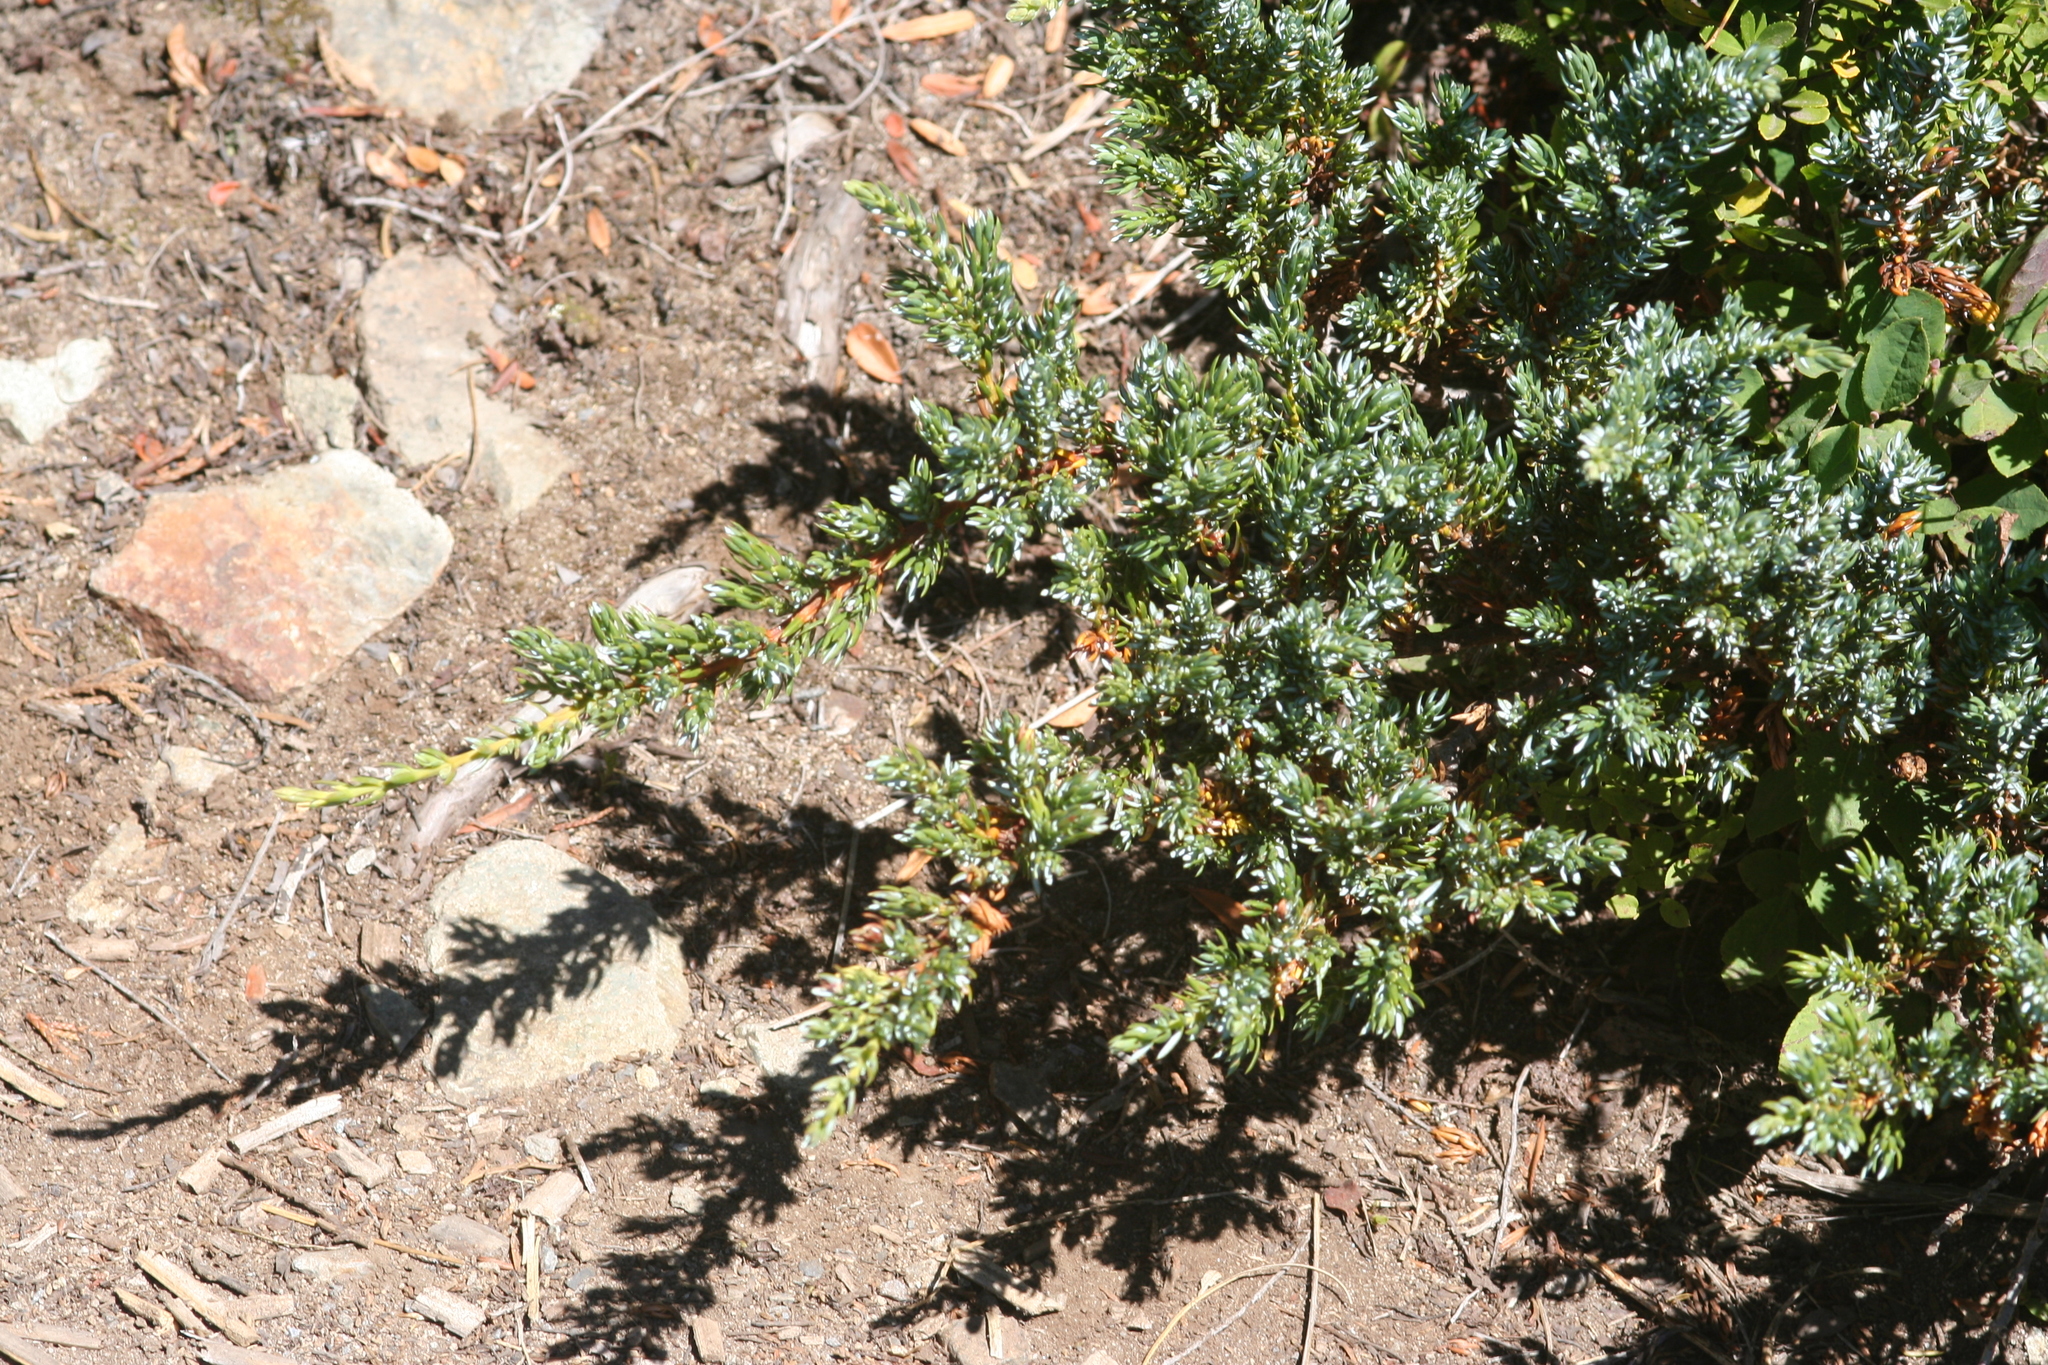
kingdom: Plantae
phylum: Tracheophyta
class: Pinopsida
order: Pinales
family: Cupressaceae
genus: Juniperus
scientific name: Juniperus communis
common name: Common juniper
